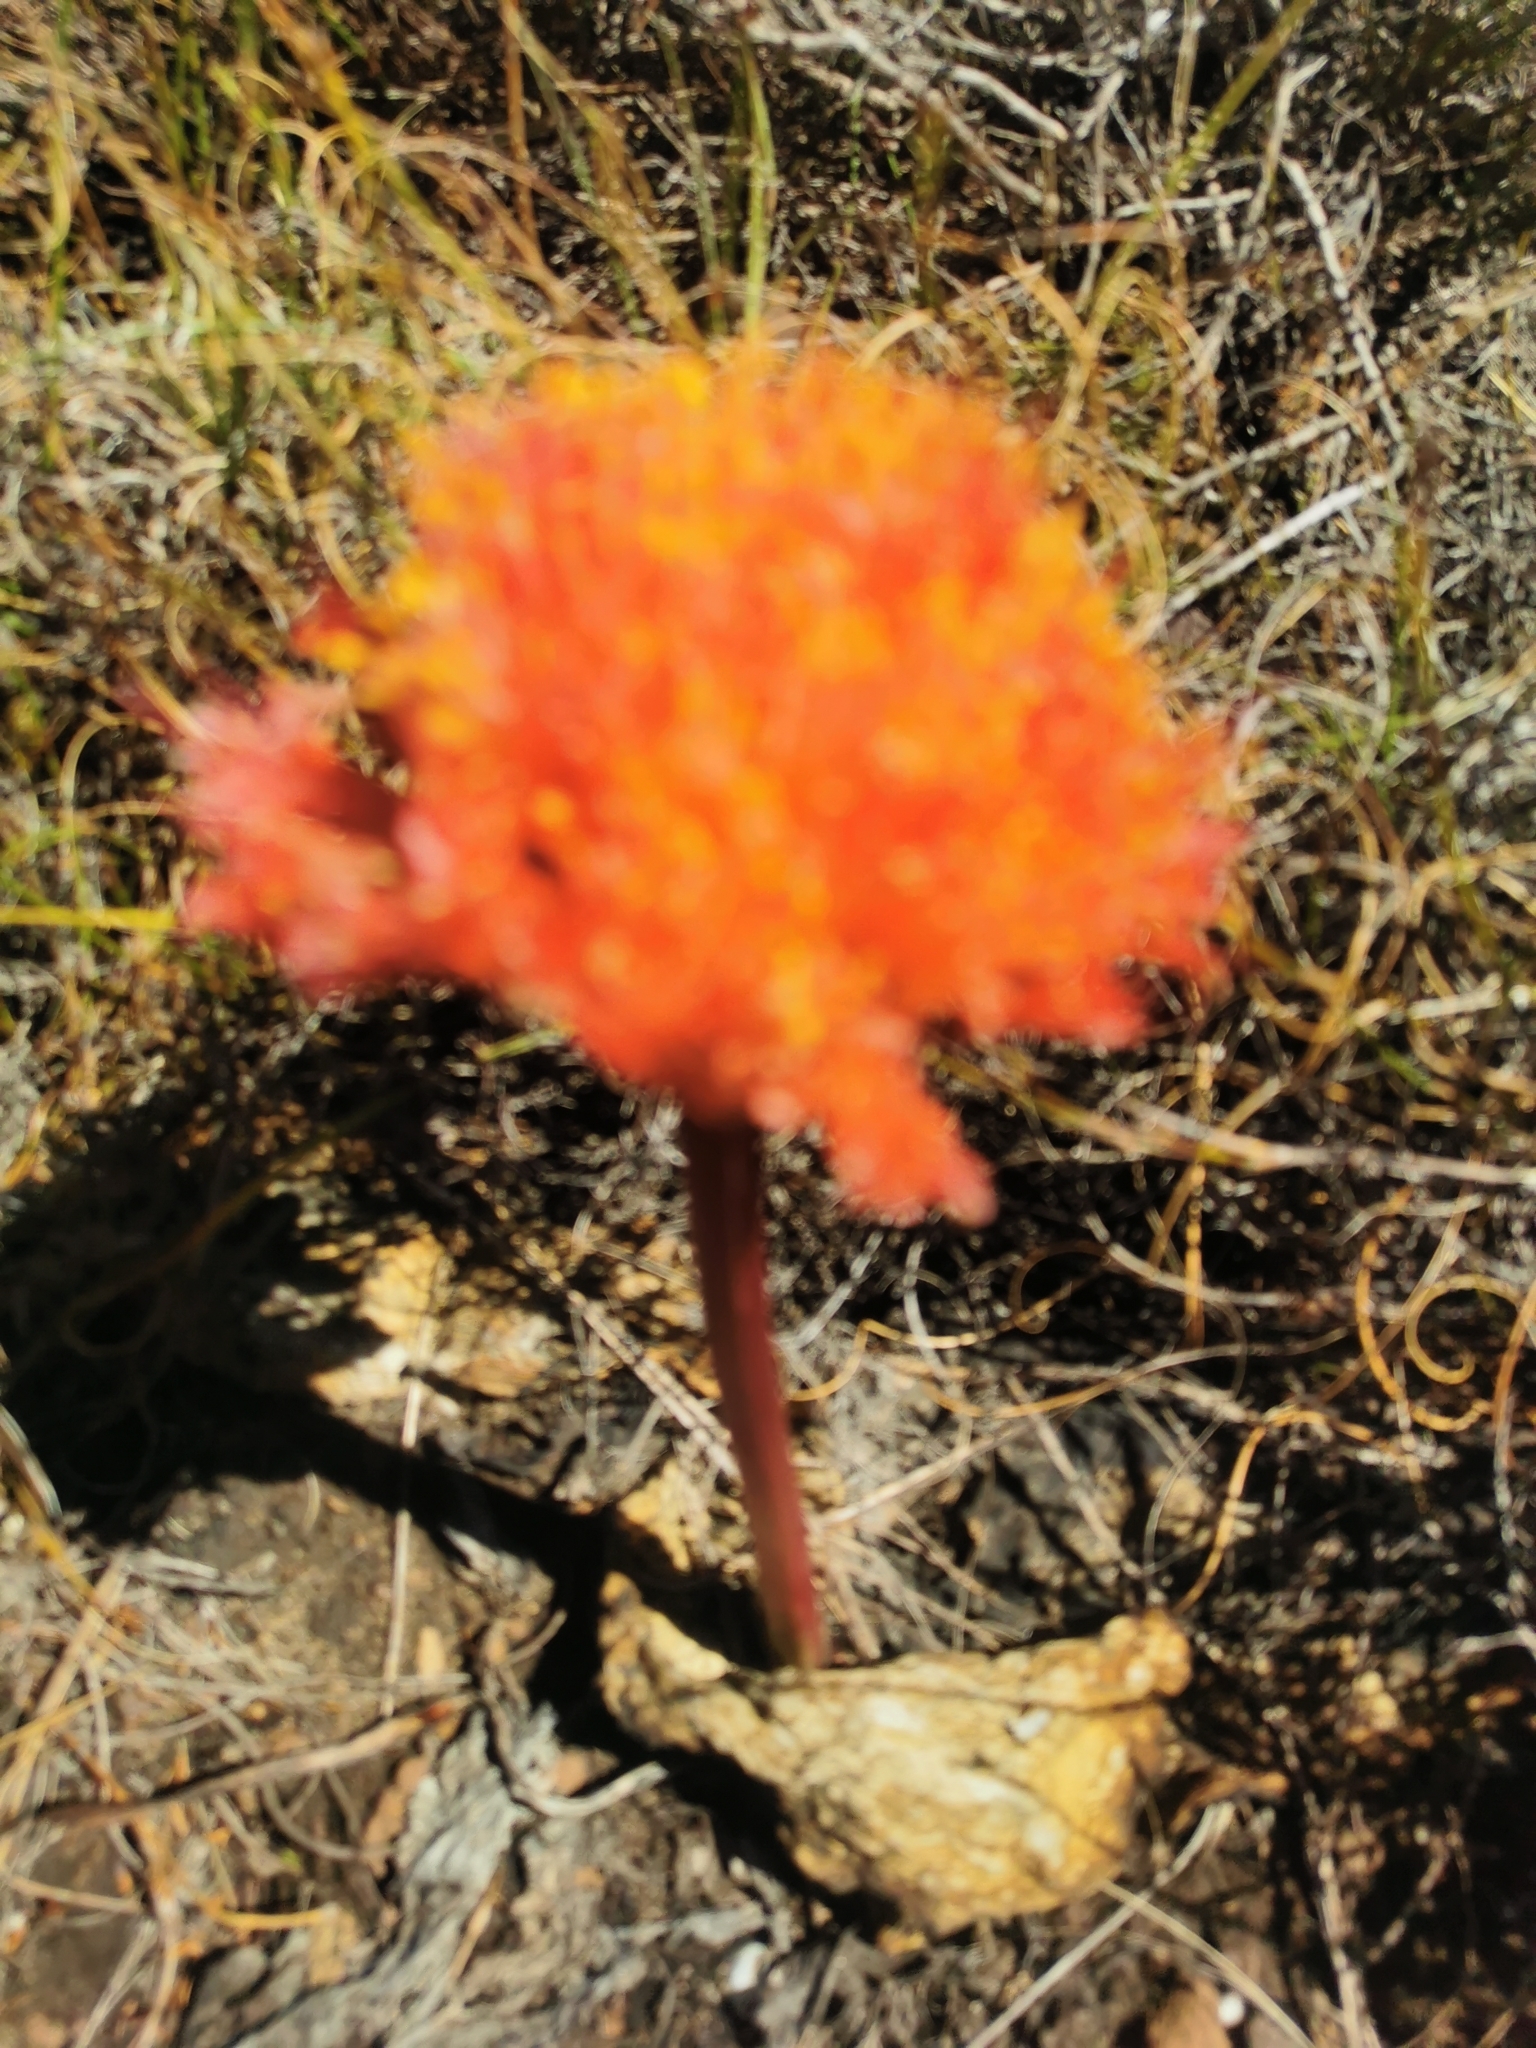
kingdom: Plantae
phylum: Tracheophyta
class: Liliopsida
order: Asparagales
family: Amaryllidaceae
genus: Haemanthus
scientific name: Haemanthus sanguineus
